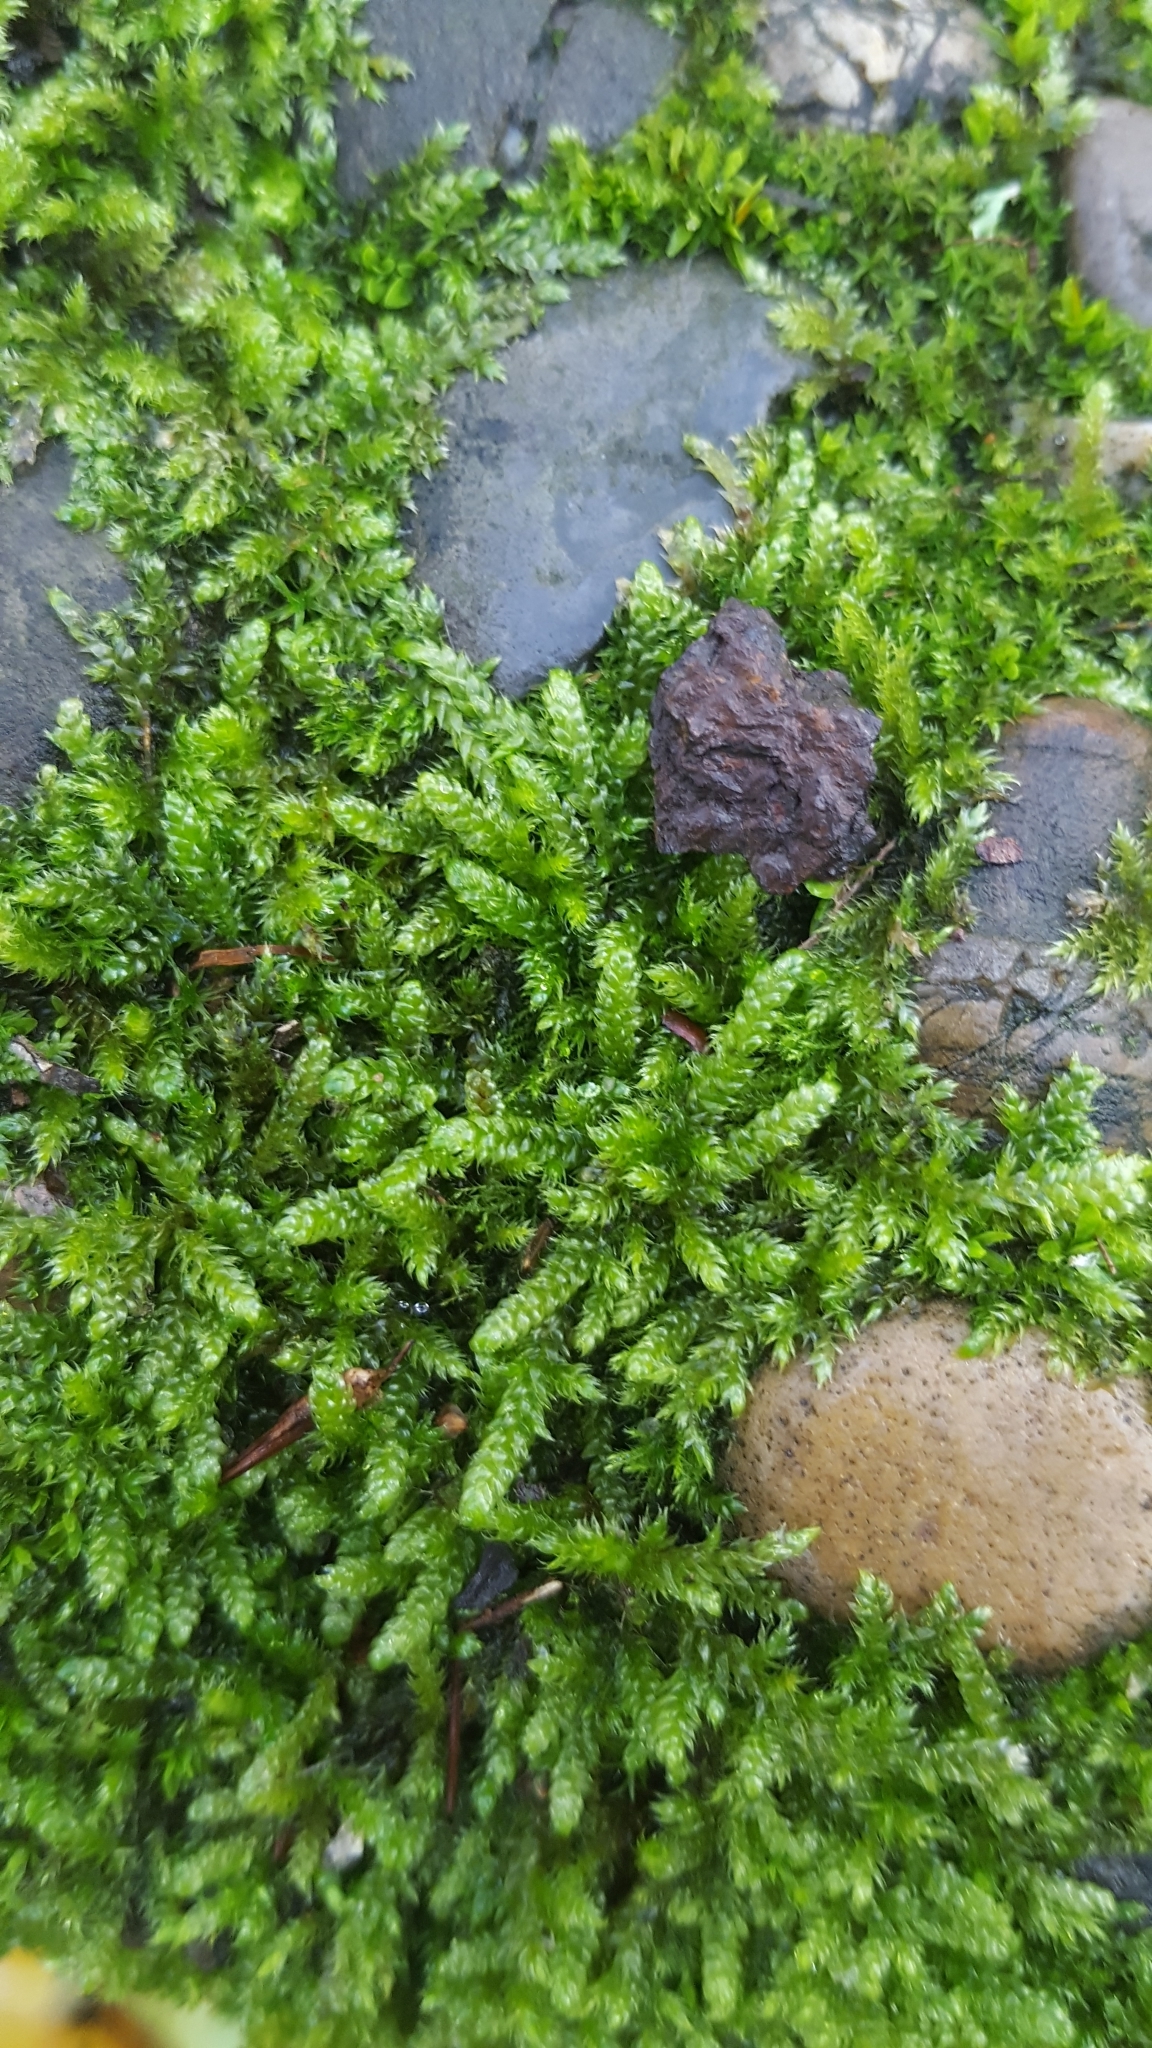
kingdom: Plantae
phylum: Bryophyta
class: Bryopsida
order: Hypnales
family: Hypnaceae
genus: Hypnum
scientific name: Hypnum cupressiforme
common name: Cypress-leaved plait-moss
